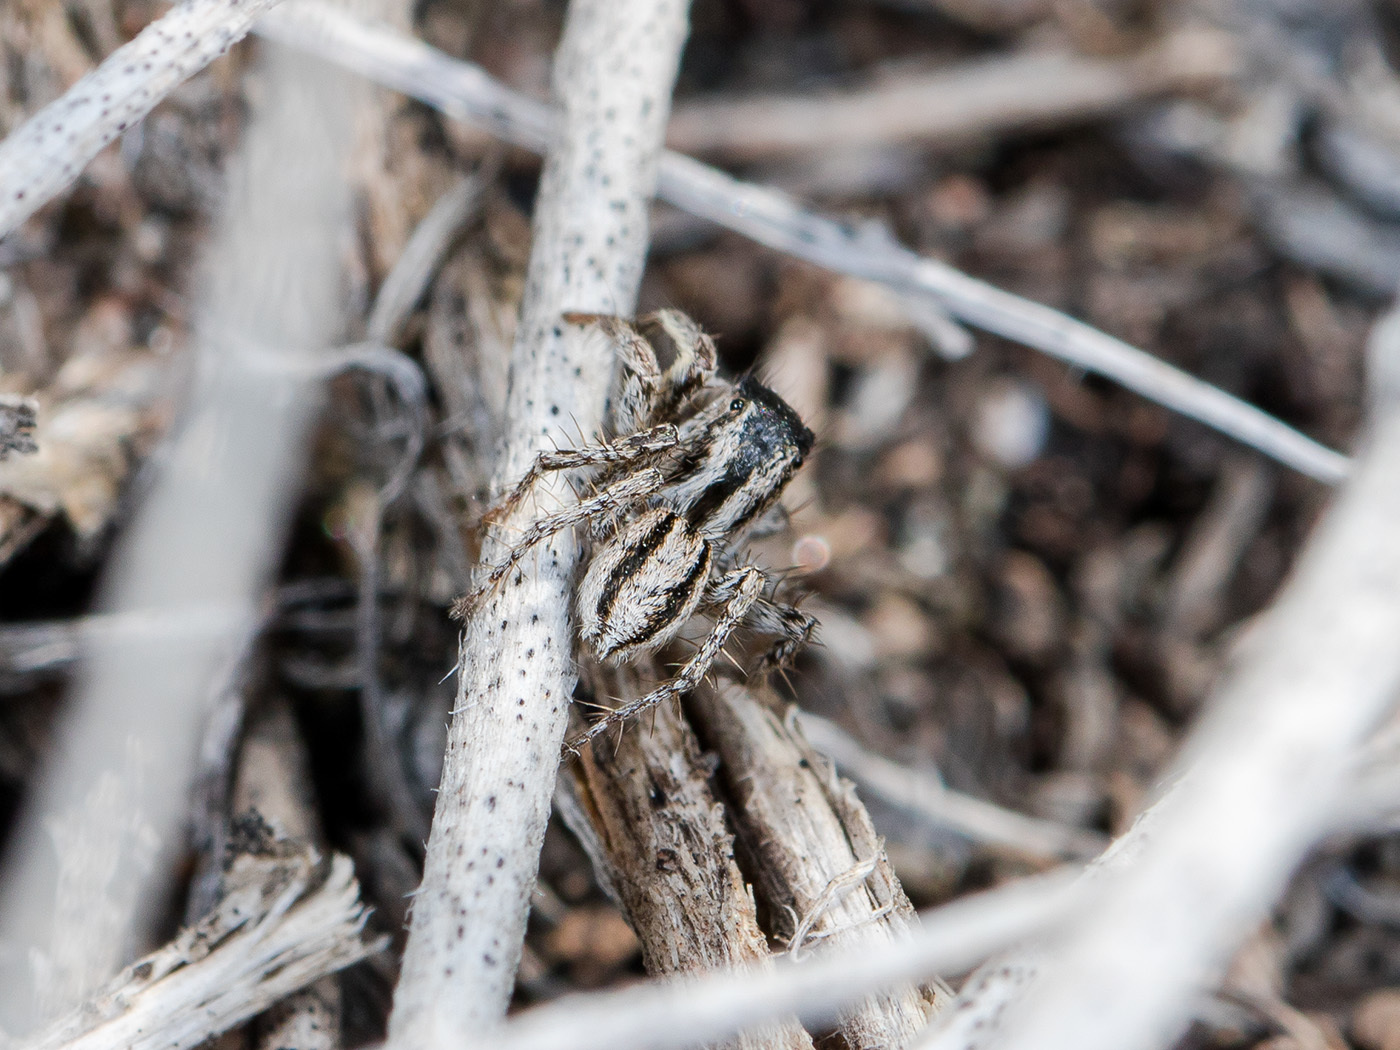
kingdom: Animalia
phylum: Arthropoda
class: Arachnida
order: Araneae
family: Salticidae
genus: Aelurillus
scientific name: Aelurillus m-nigrum
